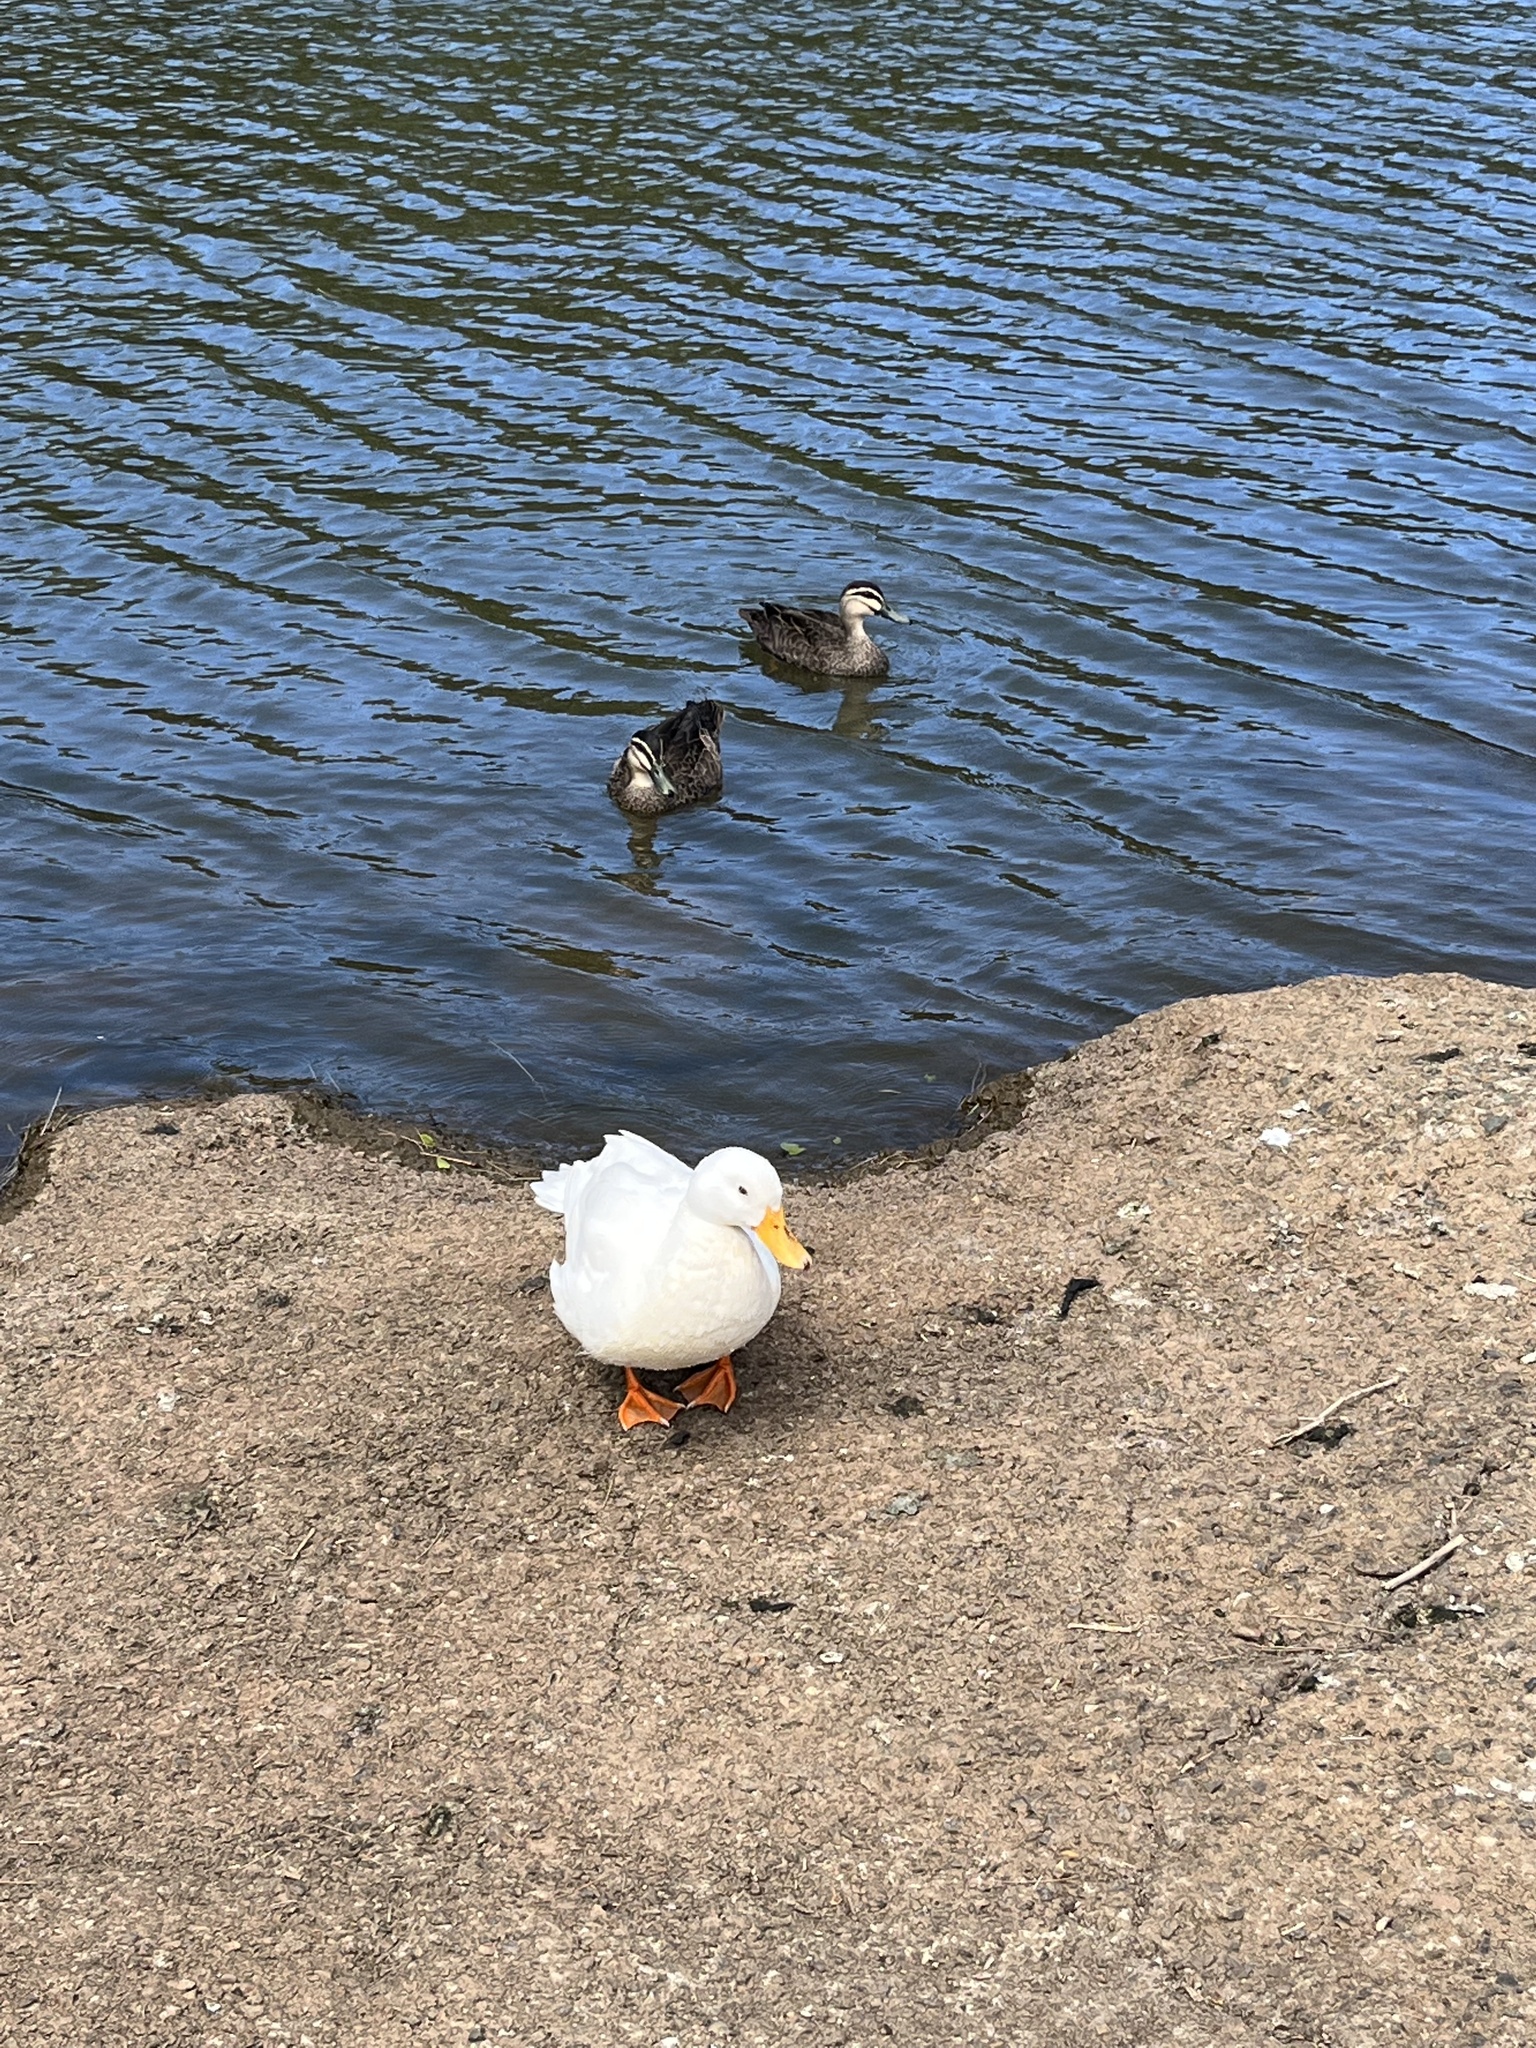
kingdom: Animalia
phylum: Chordata
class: Aves
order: Anseriformes
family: Anatidae
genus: Anas
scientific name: Anas superciliosa
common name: Pacific black duck
